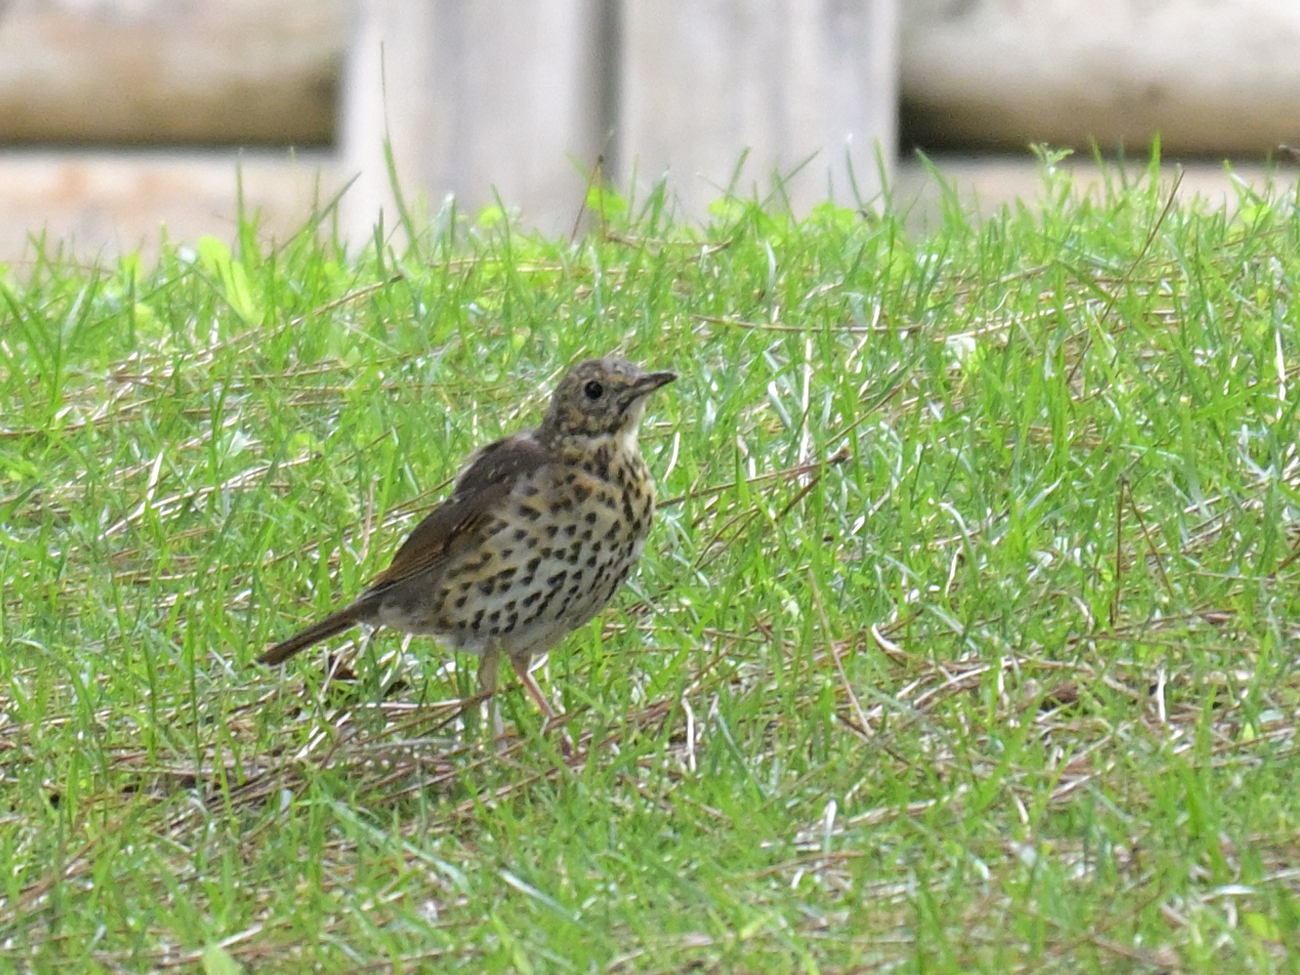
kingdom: Animalia
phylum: Chordata
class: Aves
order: Passeriformes
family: Turdidae
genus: Turdus
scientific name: Turdus philomelos
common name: Song thrush
